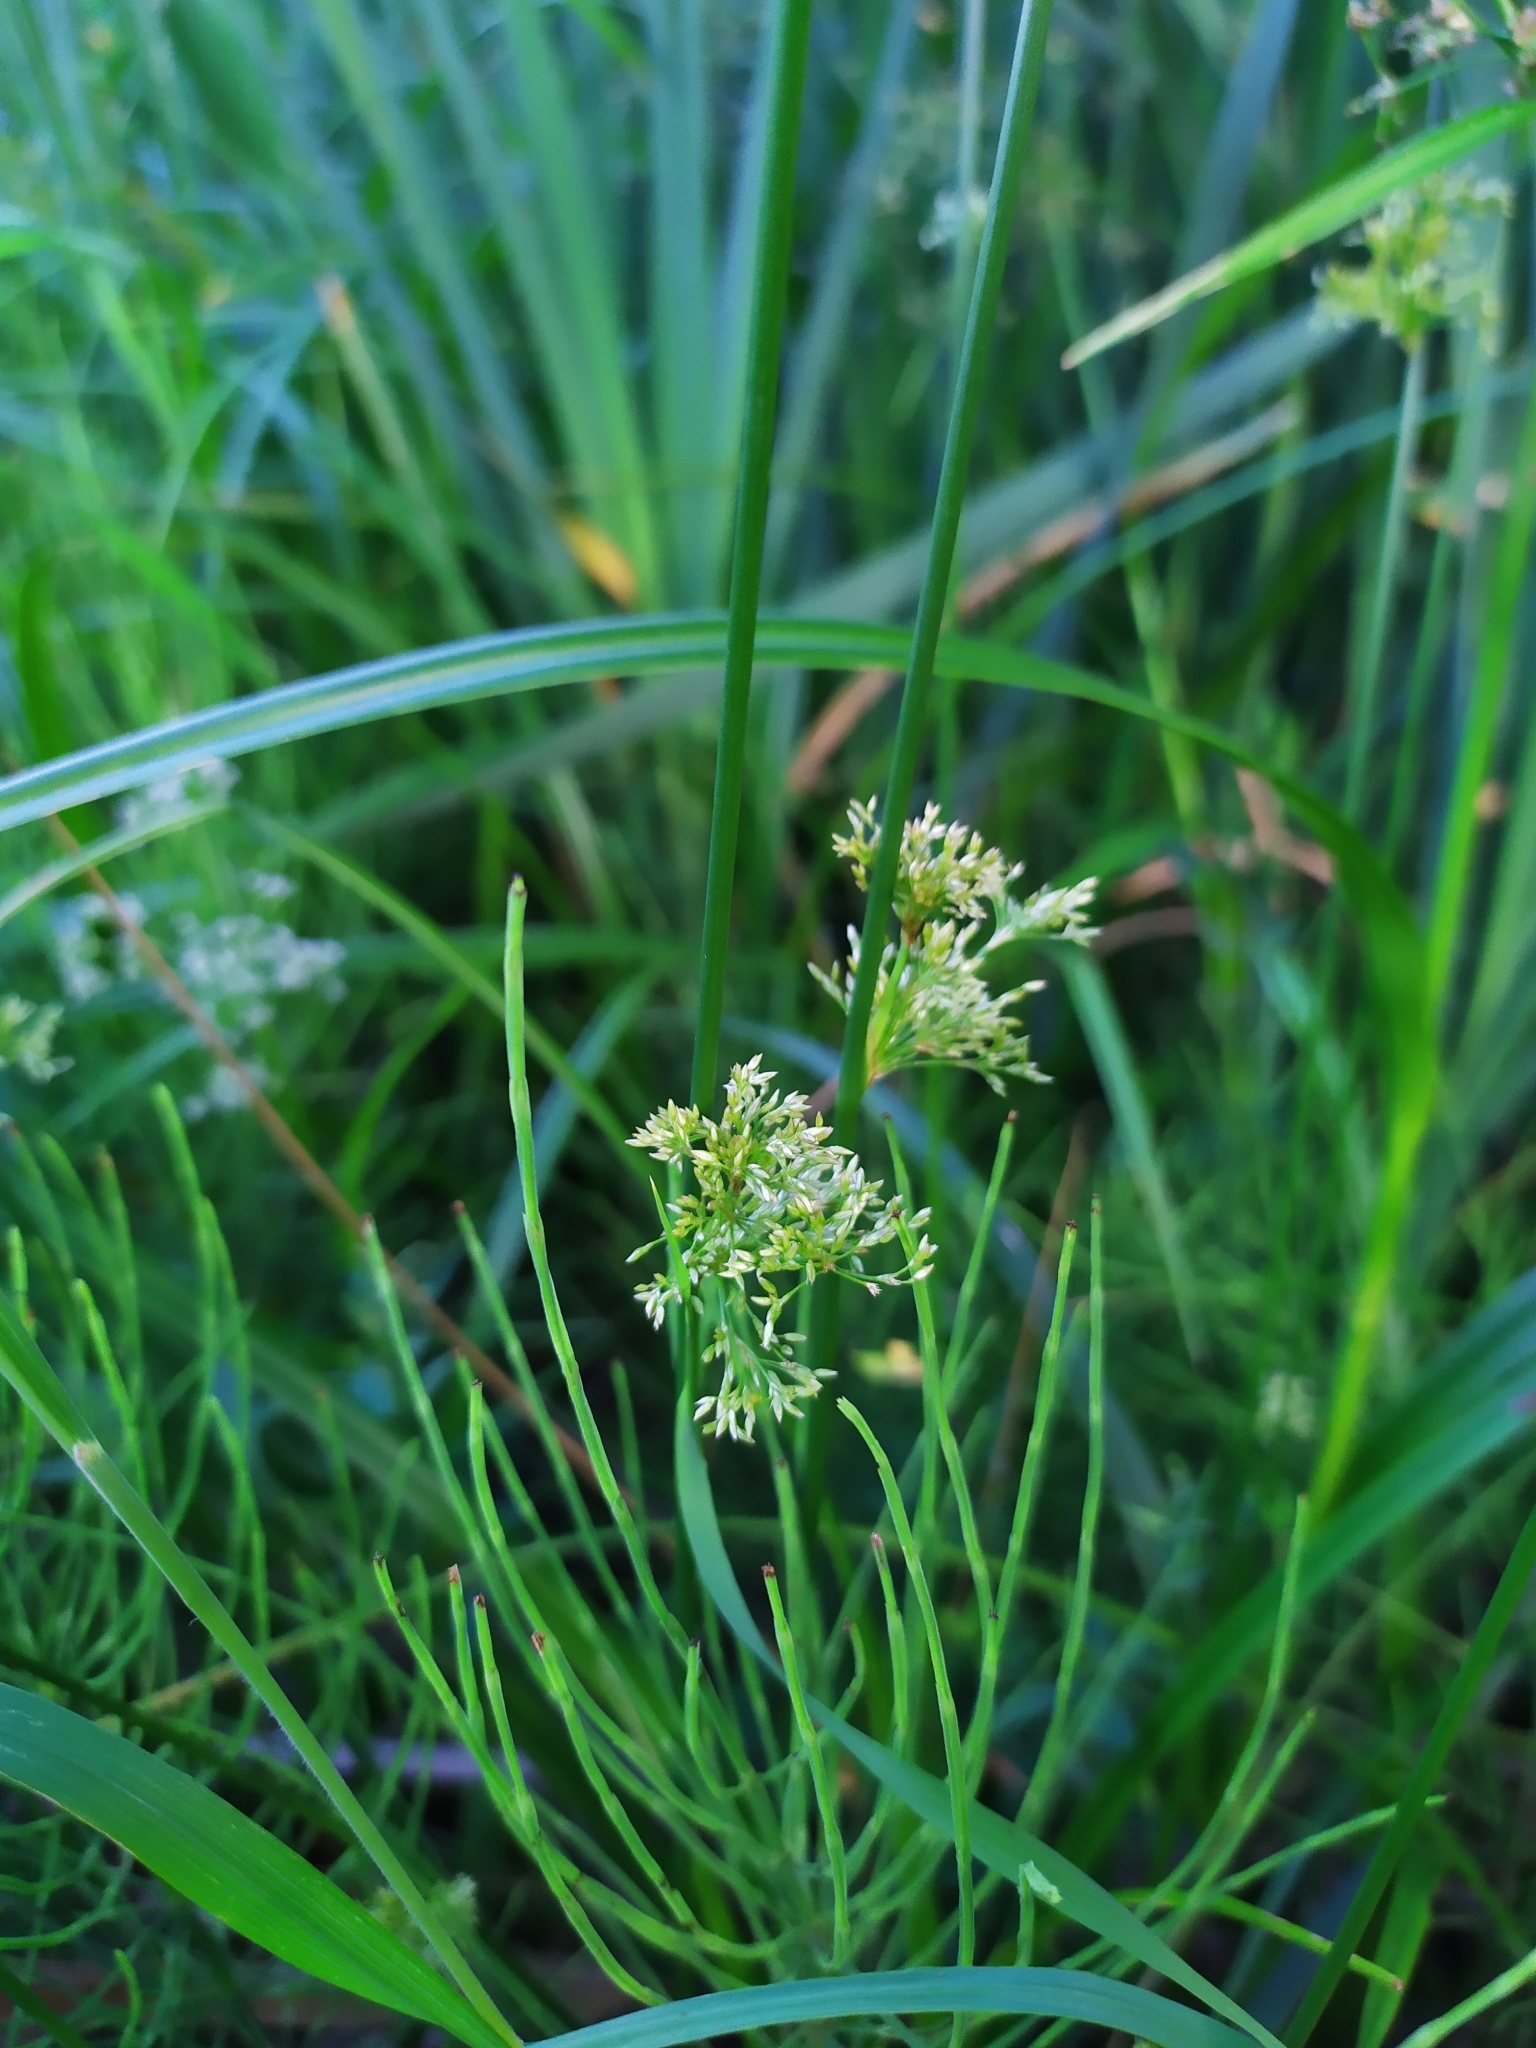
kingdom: Plantae
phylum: Tracheophyta
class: Liliopsida
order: Poales
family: Juncaceae
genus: Juncus
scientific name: Juncus effusus
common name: Soft rush
